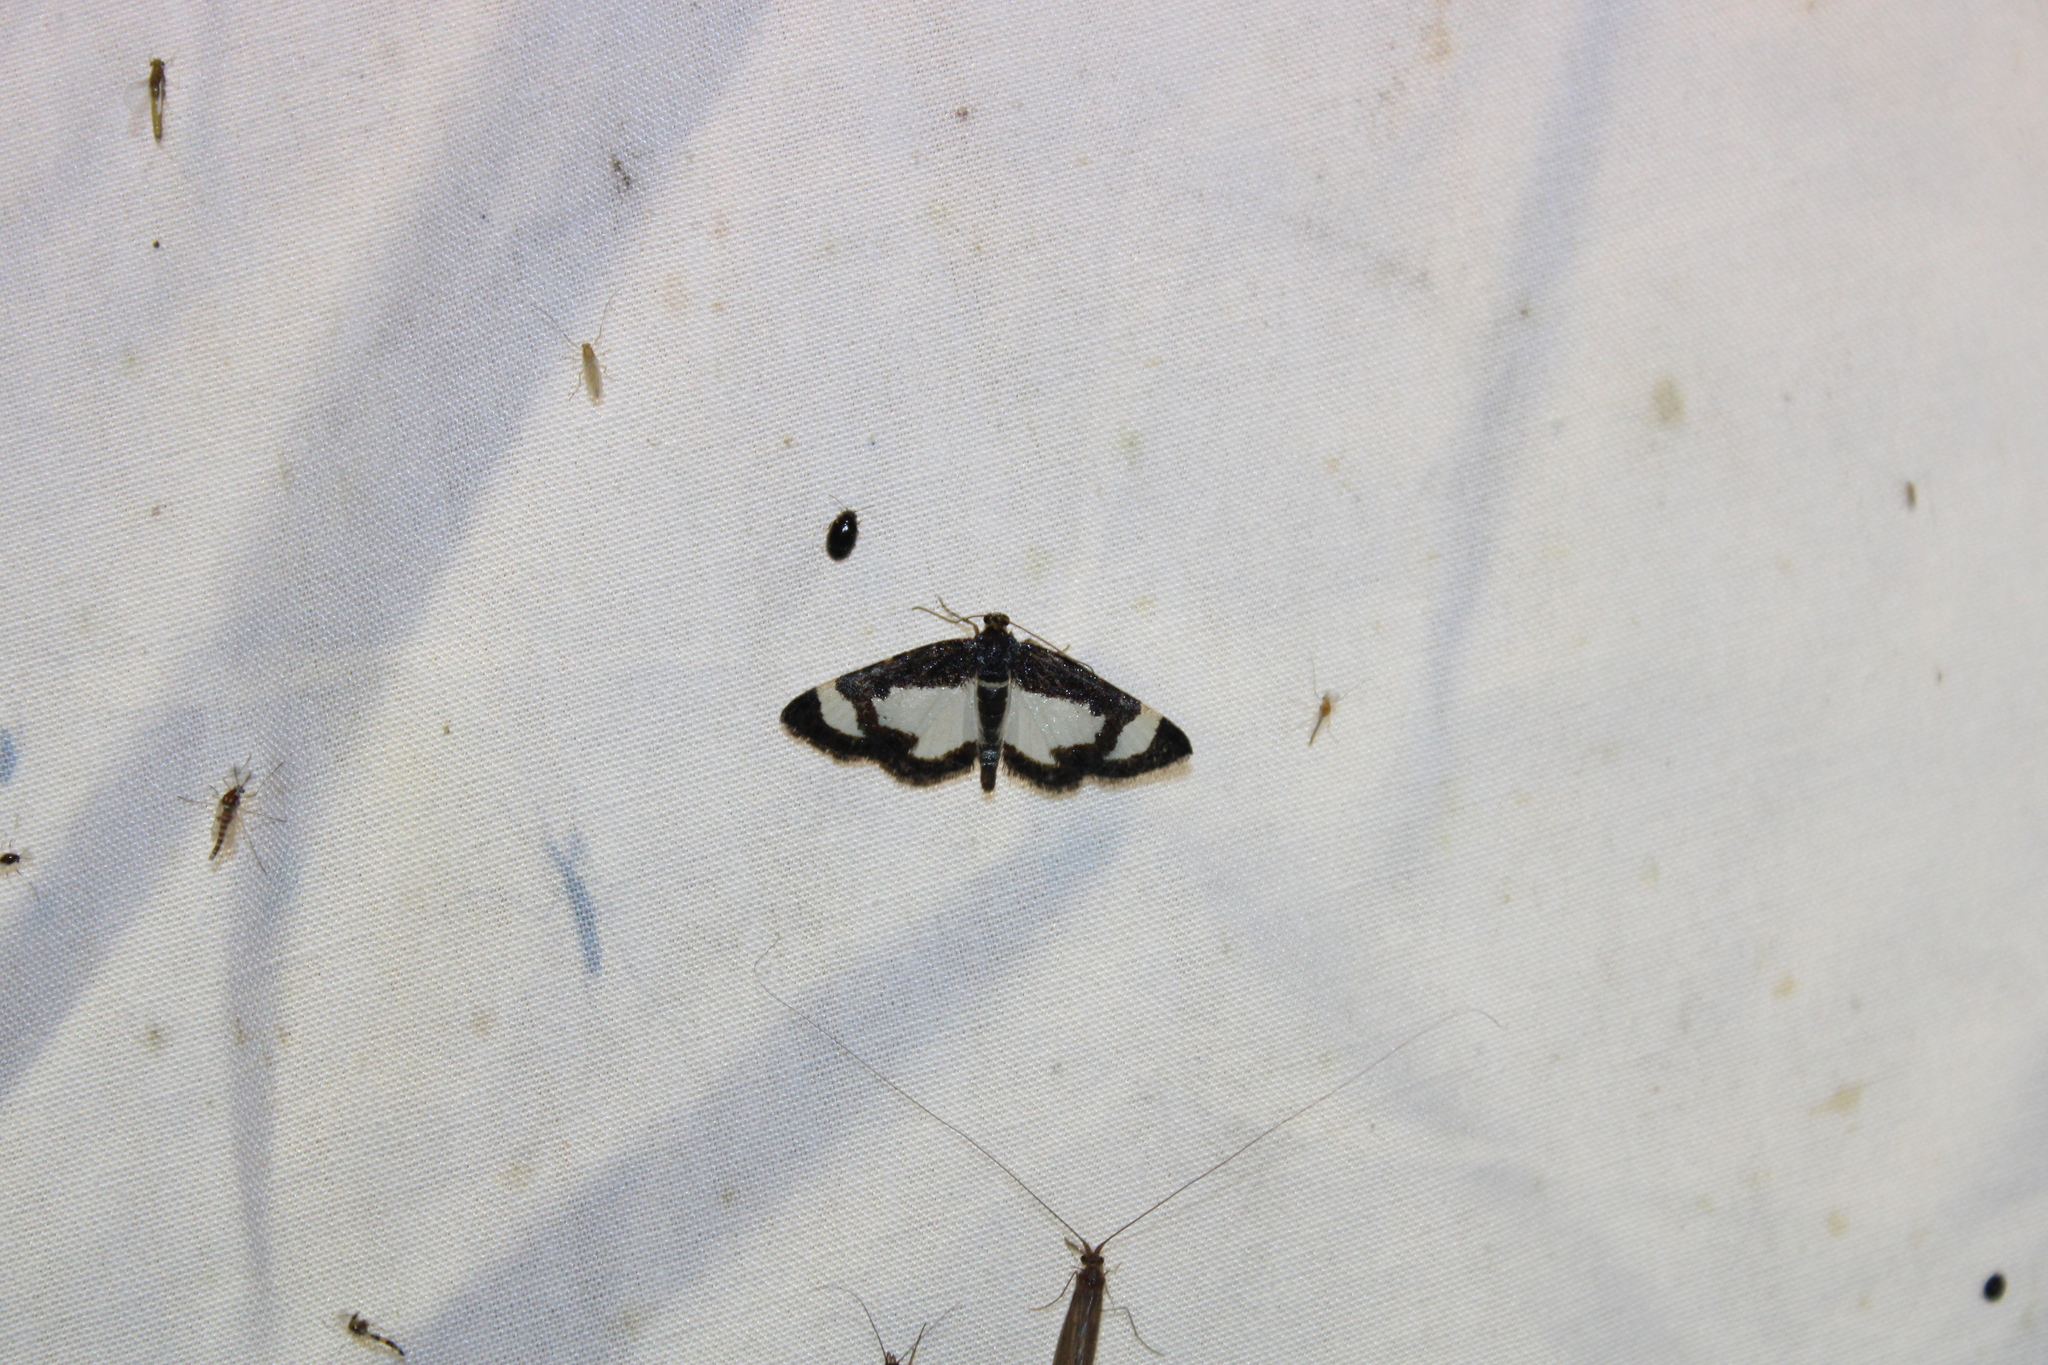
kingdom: Animalia
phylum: Arthropoda
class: Insecta
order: Lepidoptera
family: Geometridae
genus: Heliomata
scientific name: Heliomata cycladata
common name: Common spring moth
